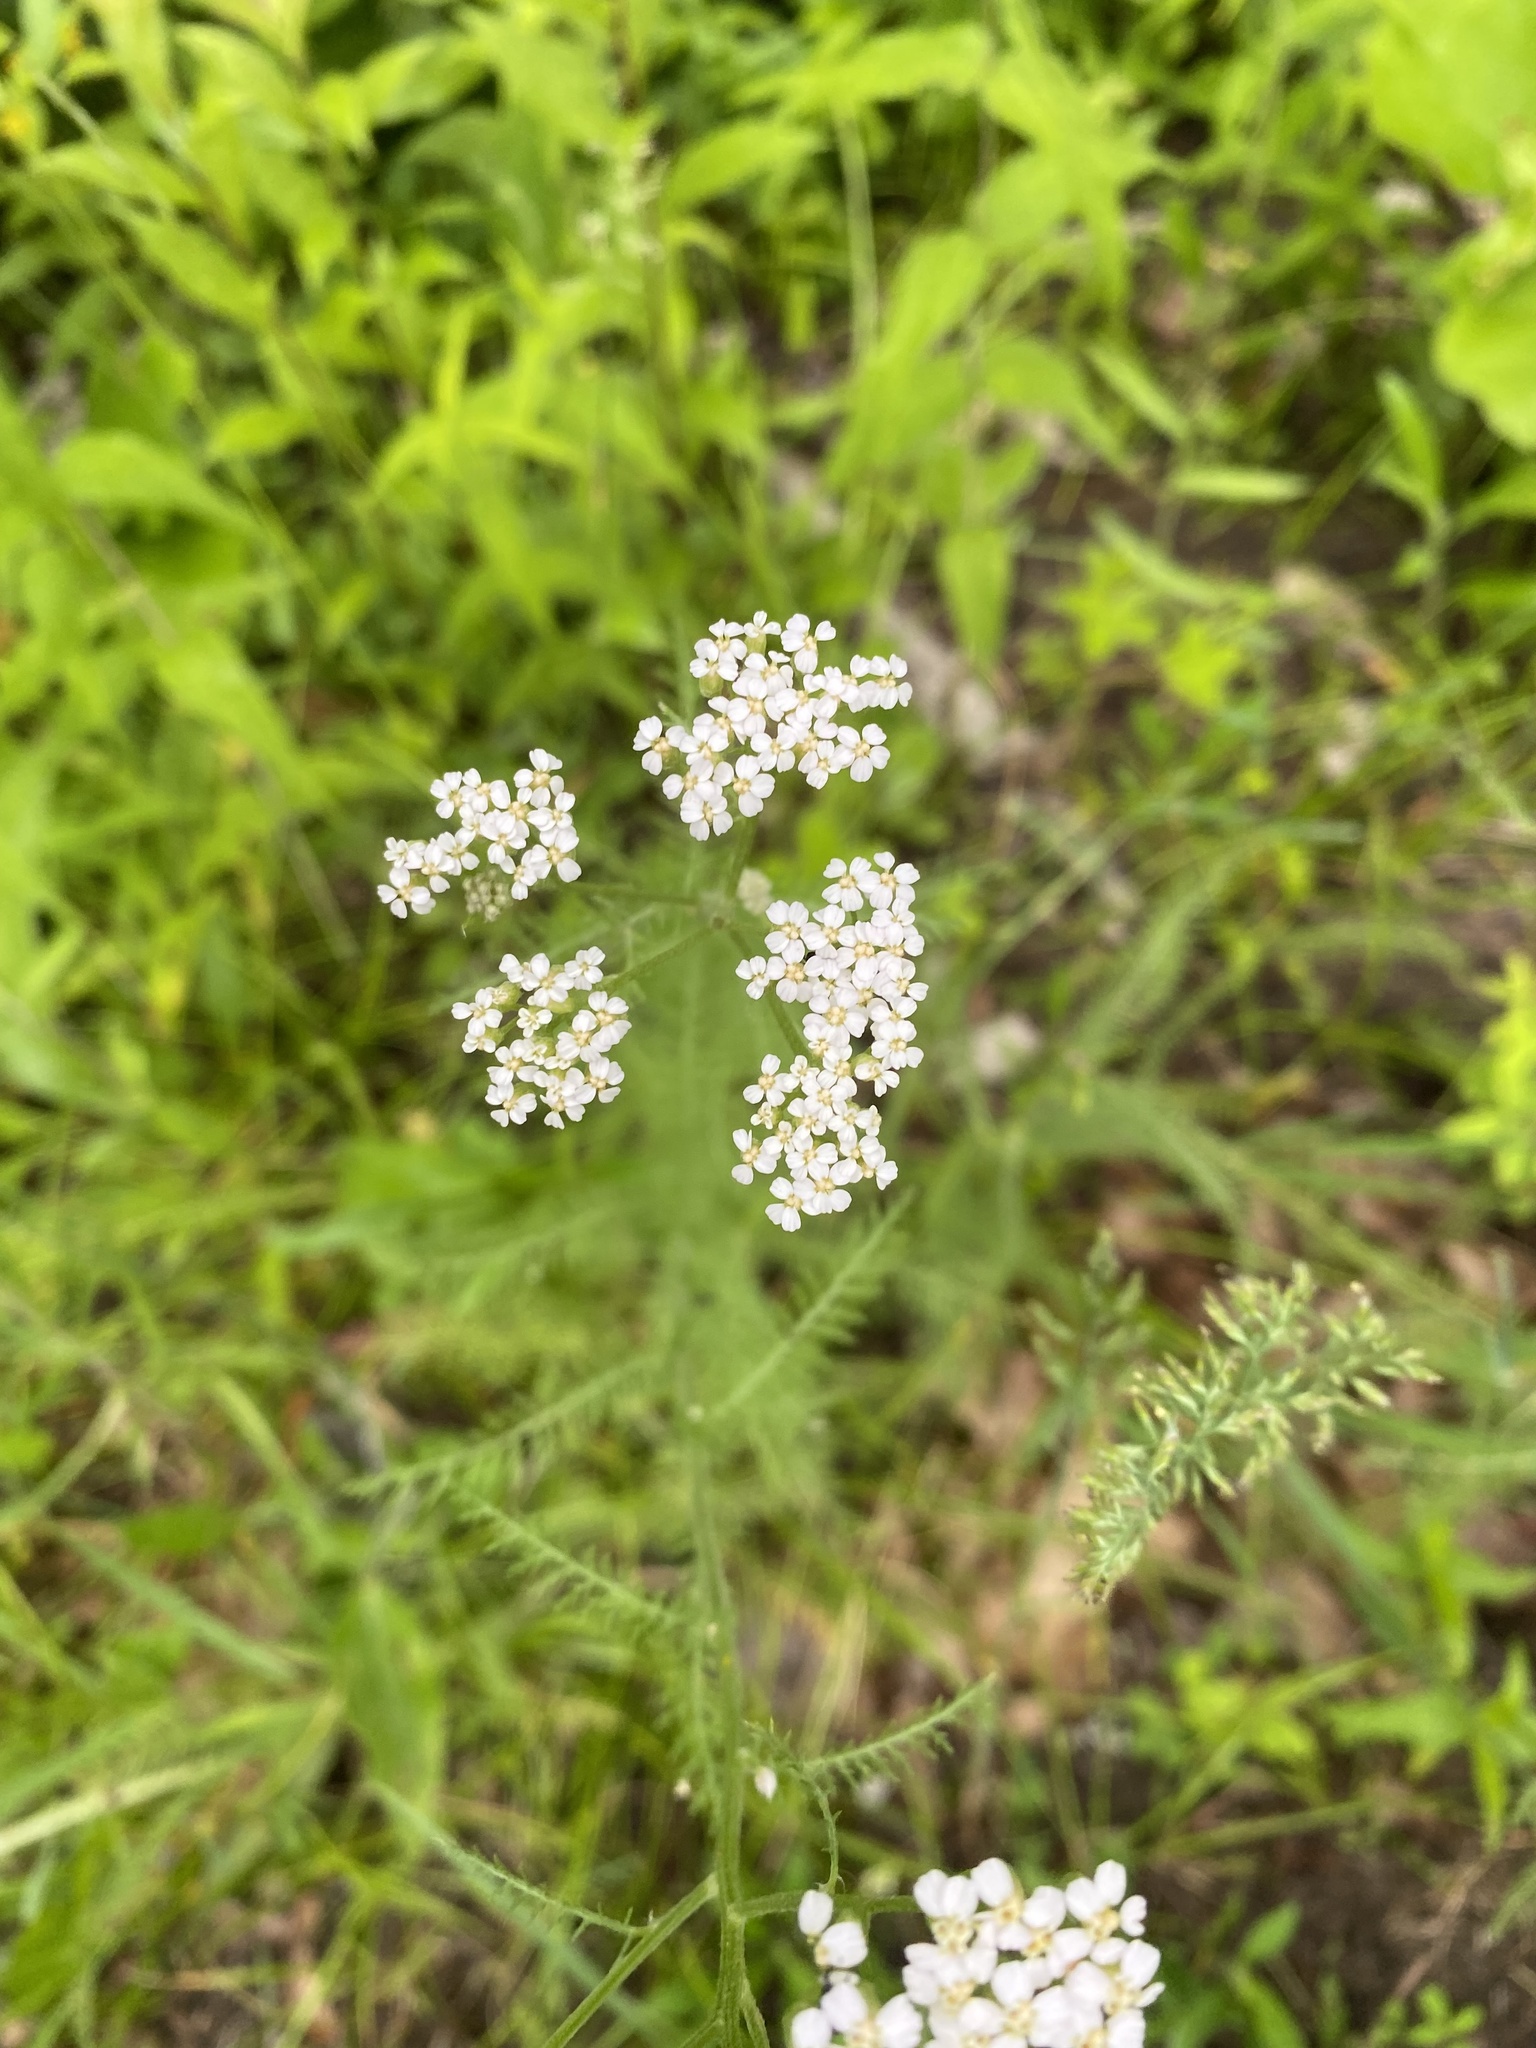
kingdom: Plantae
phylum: Tracheophyta
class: Magnoliopsida
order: Asterales
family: Asteraceae
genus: Achillea
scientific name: Achillea millefolium
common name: Yarrow
